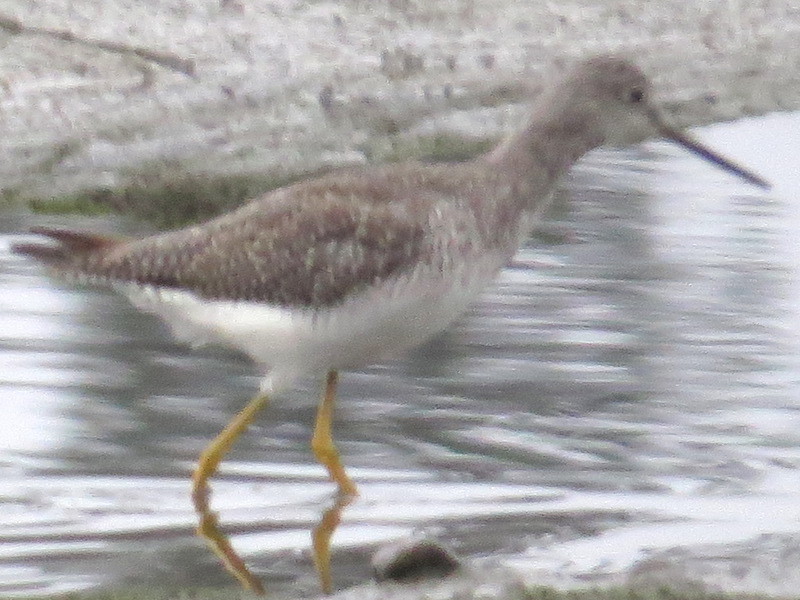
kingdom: Animalia
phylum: Chordata
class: Aves
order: Charadriiformes
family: Scolopacidae
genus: Tringa
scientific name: Tringa melanoleuca
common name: Greater yellowlegs
